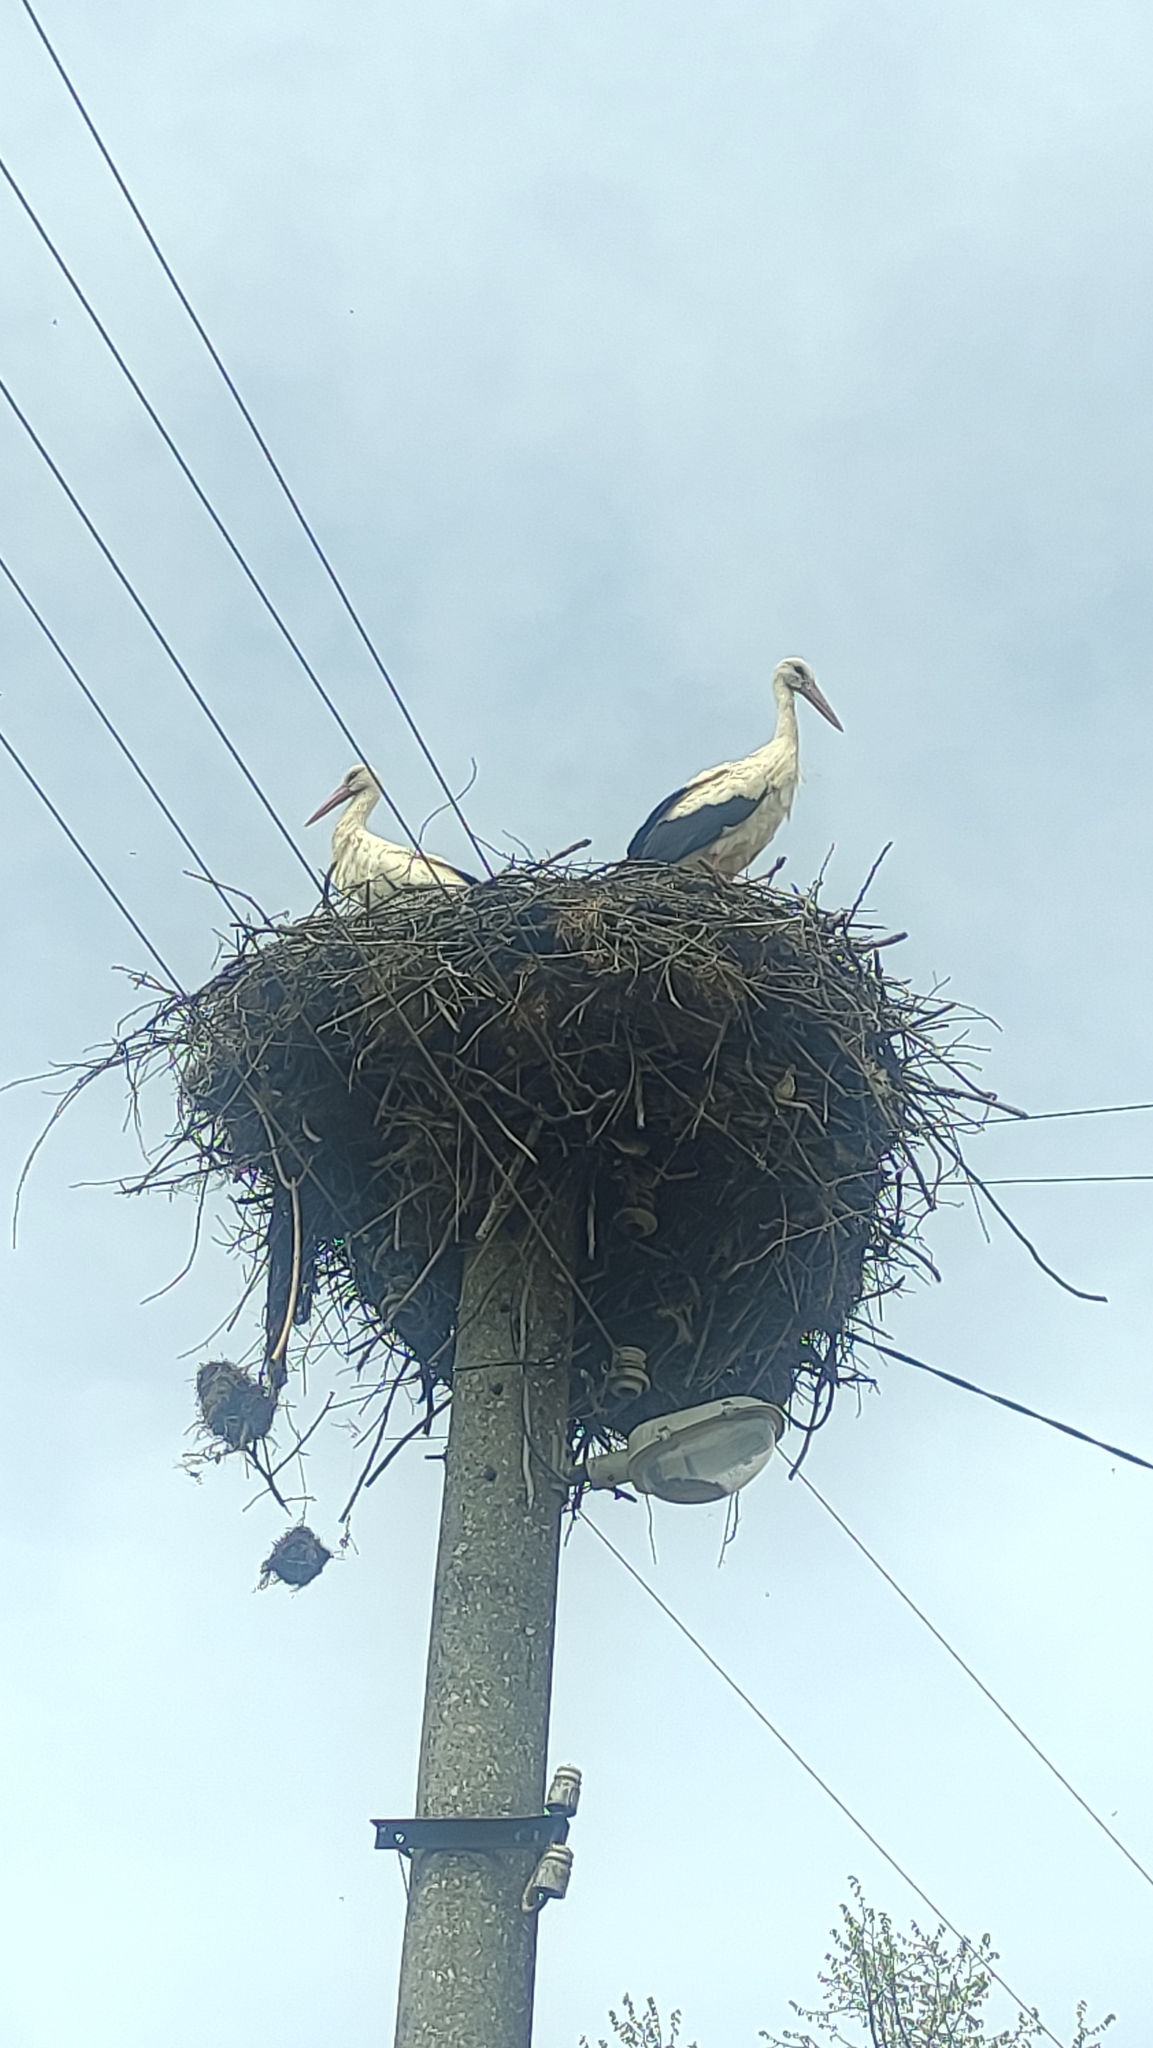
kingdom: Animalia
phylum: Chordata
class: Aves
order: Ciconiiformes
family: Ciconiidae
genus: Ciconia
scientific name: Ciconia ciconia
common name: White stork
